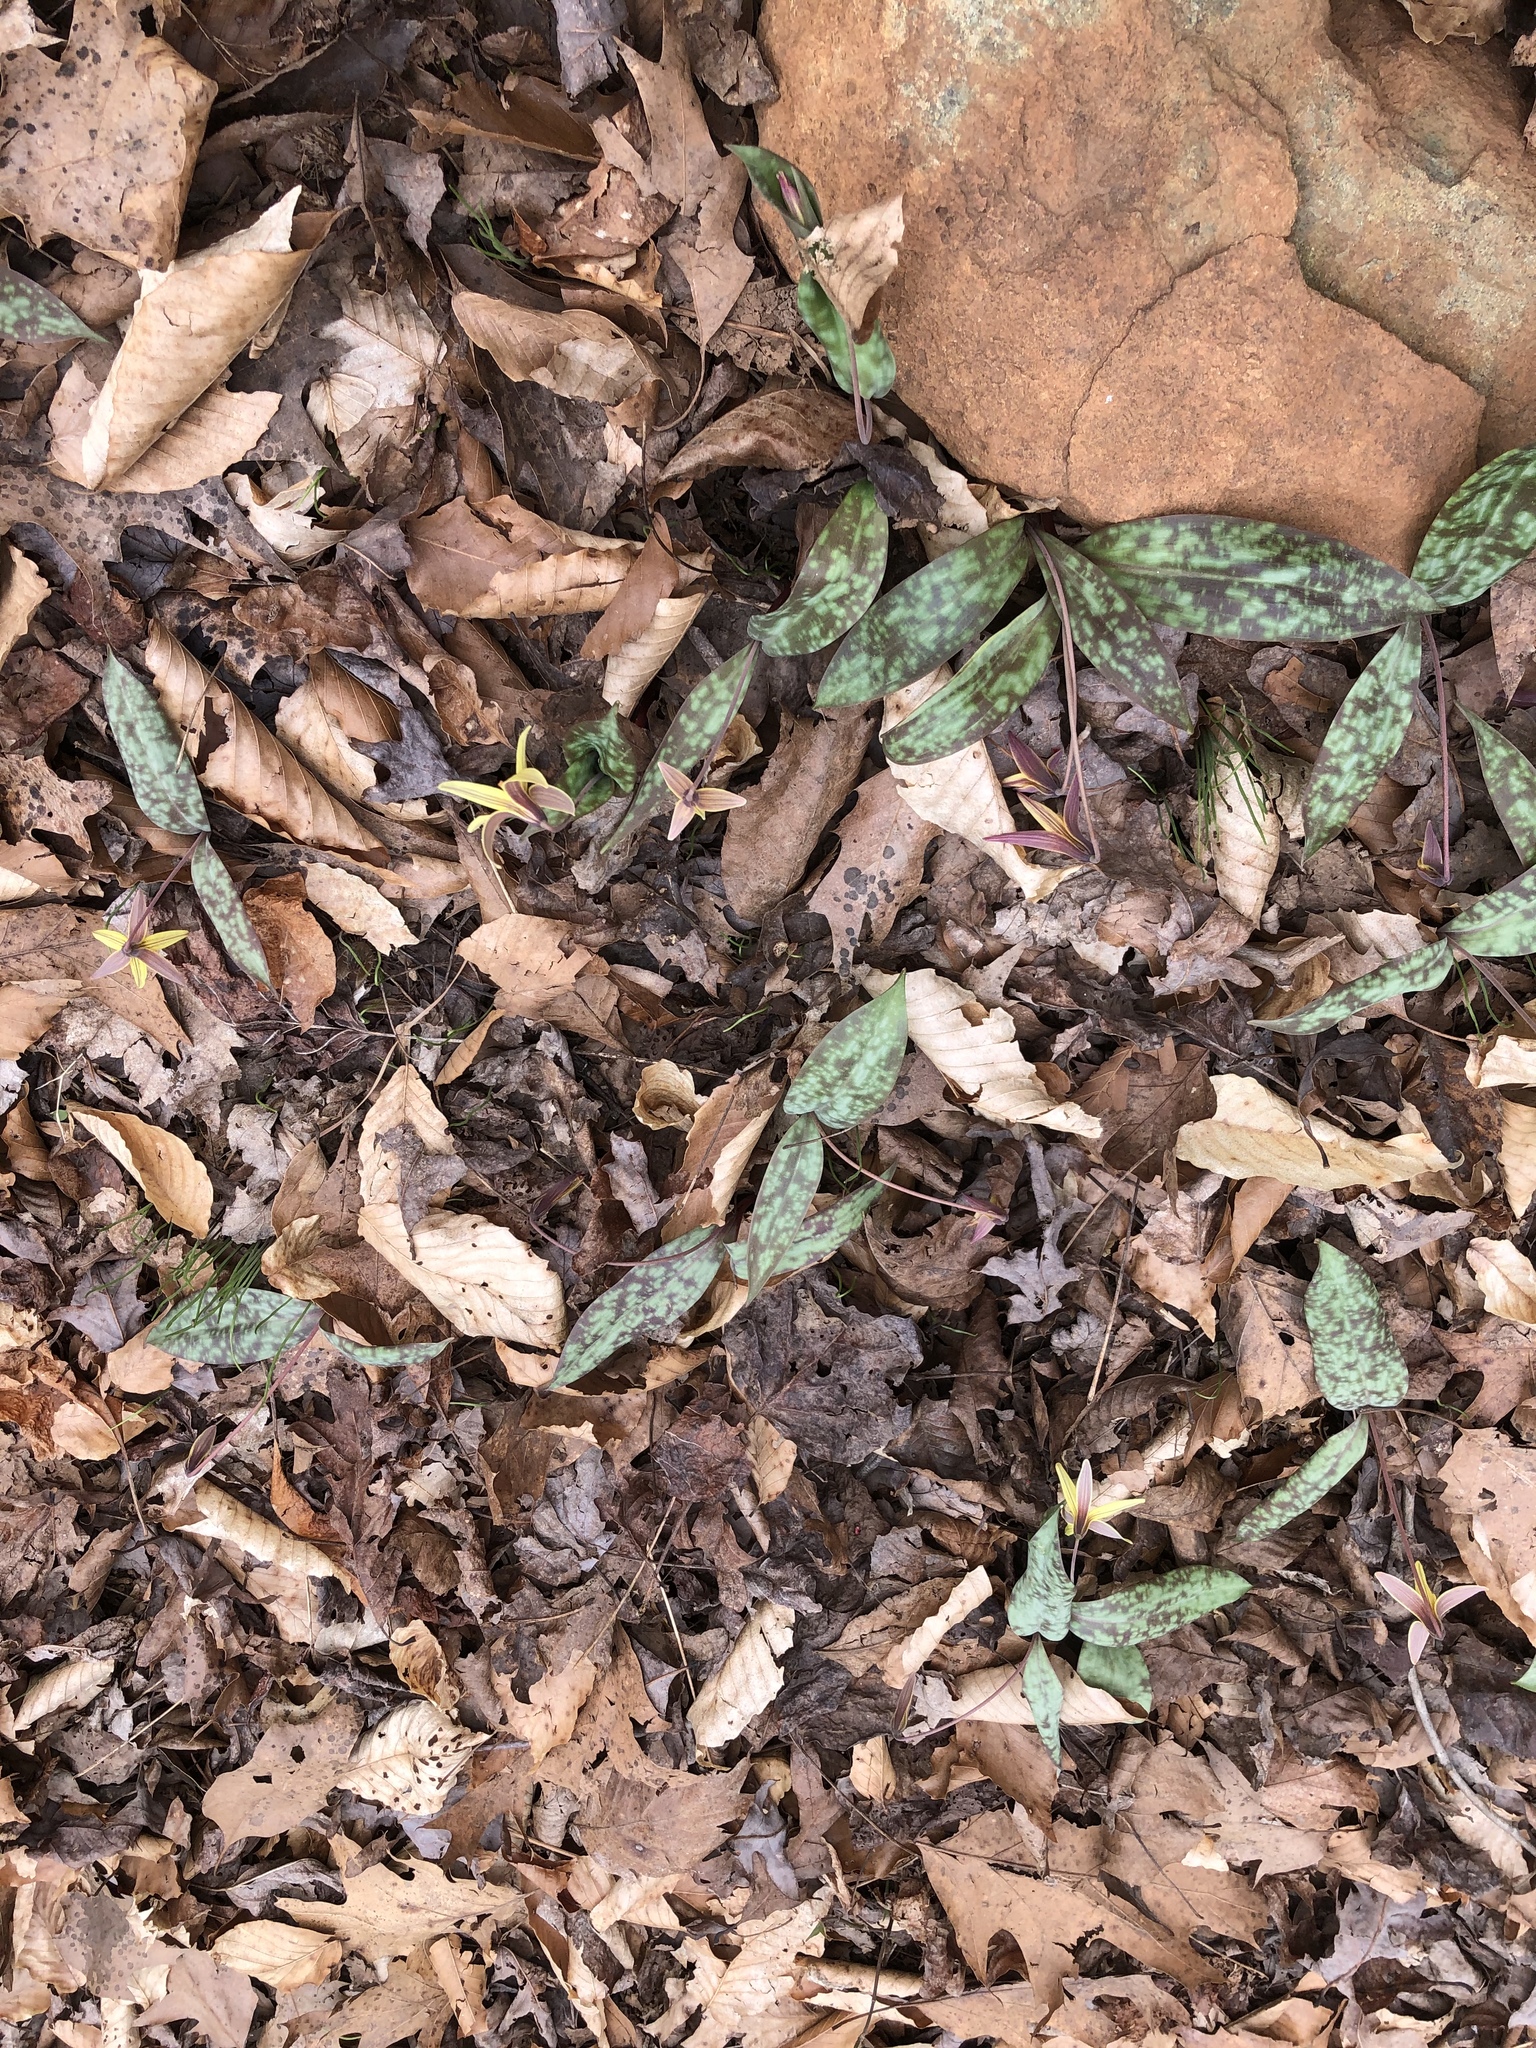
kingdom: Plantae
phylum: Tracheophyta
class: Liliopsida
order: Liliales
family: Liliaceae
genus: Erythronium
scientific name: Erythronium umbilicatum
